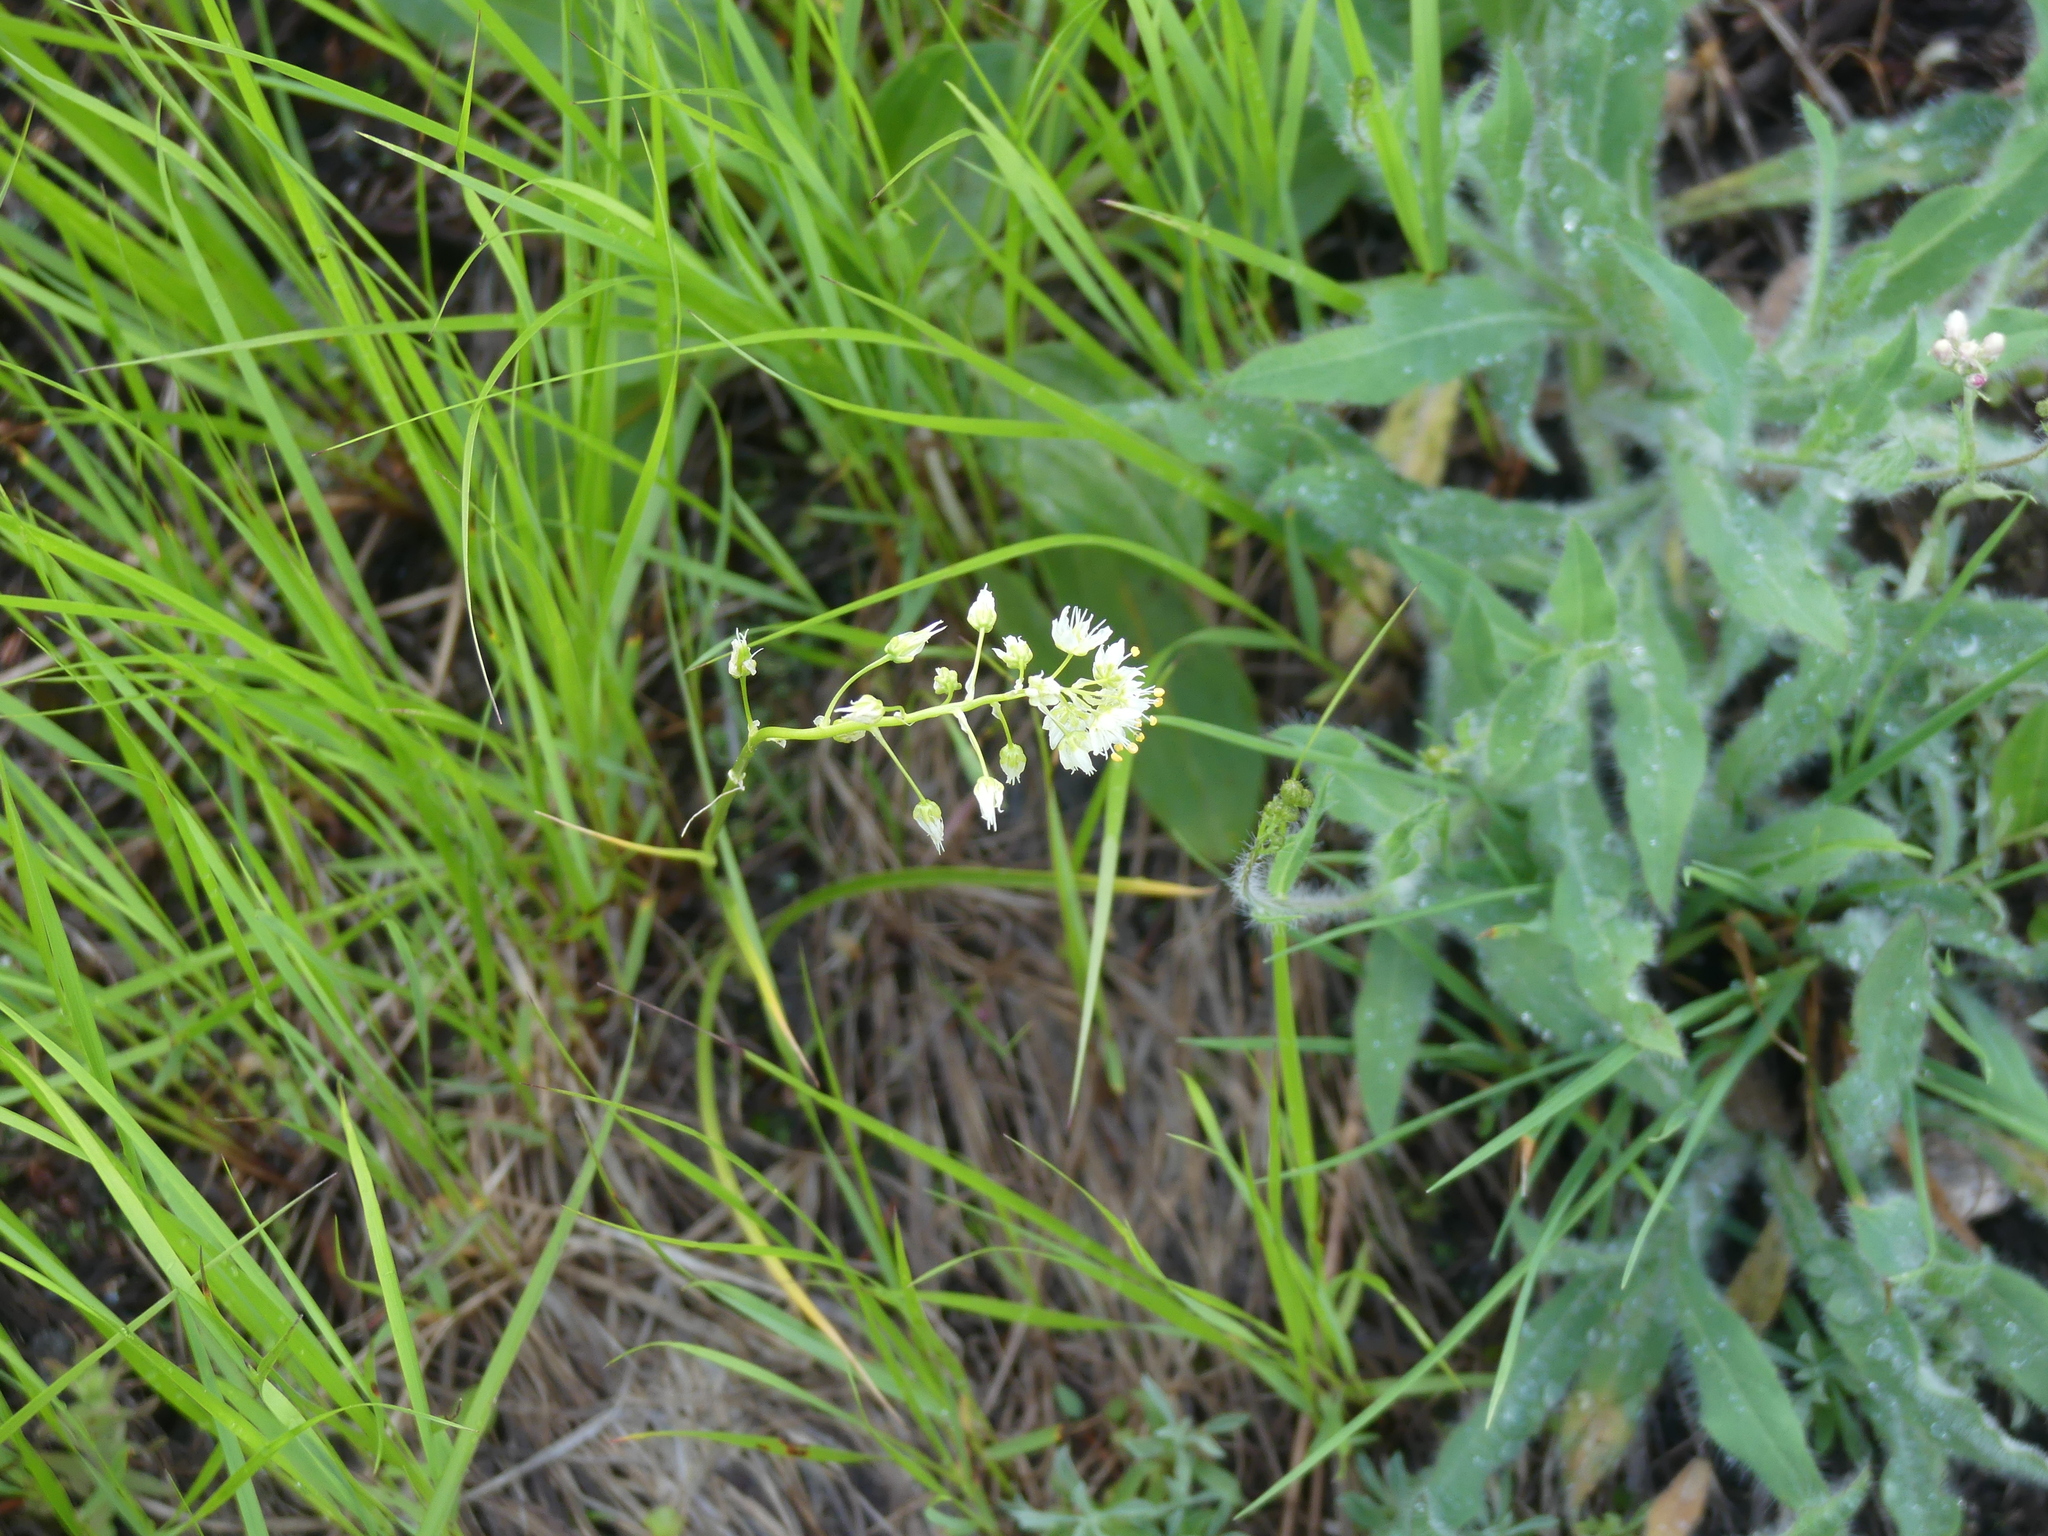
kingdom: Plantae
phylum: Tracheophyta
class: Liliopsida
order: Liliales
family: Melanthiaceae
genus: Toxicoscordion
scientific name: Toxicoscordion venenosum
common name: Meadow death camas
